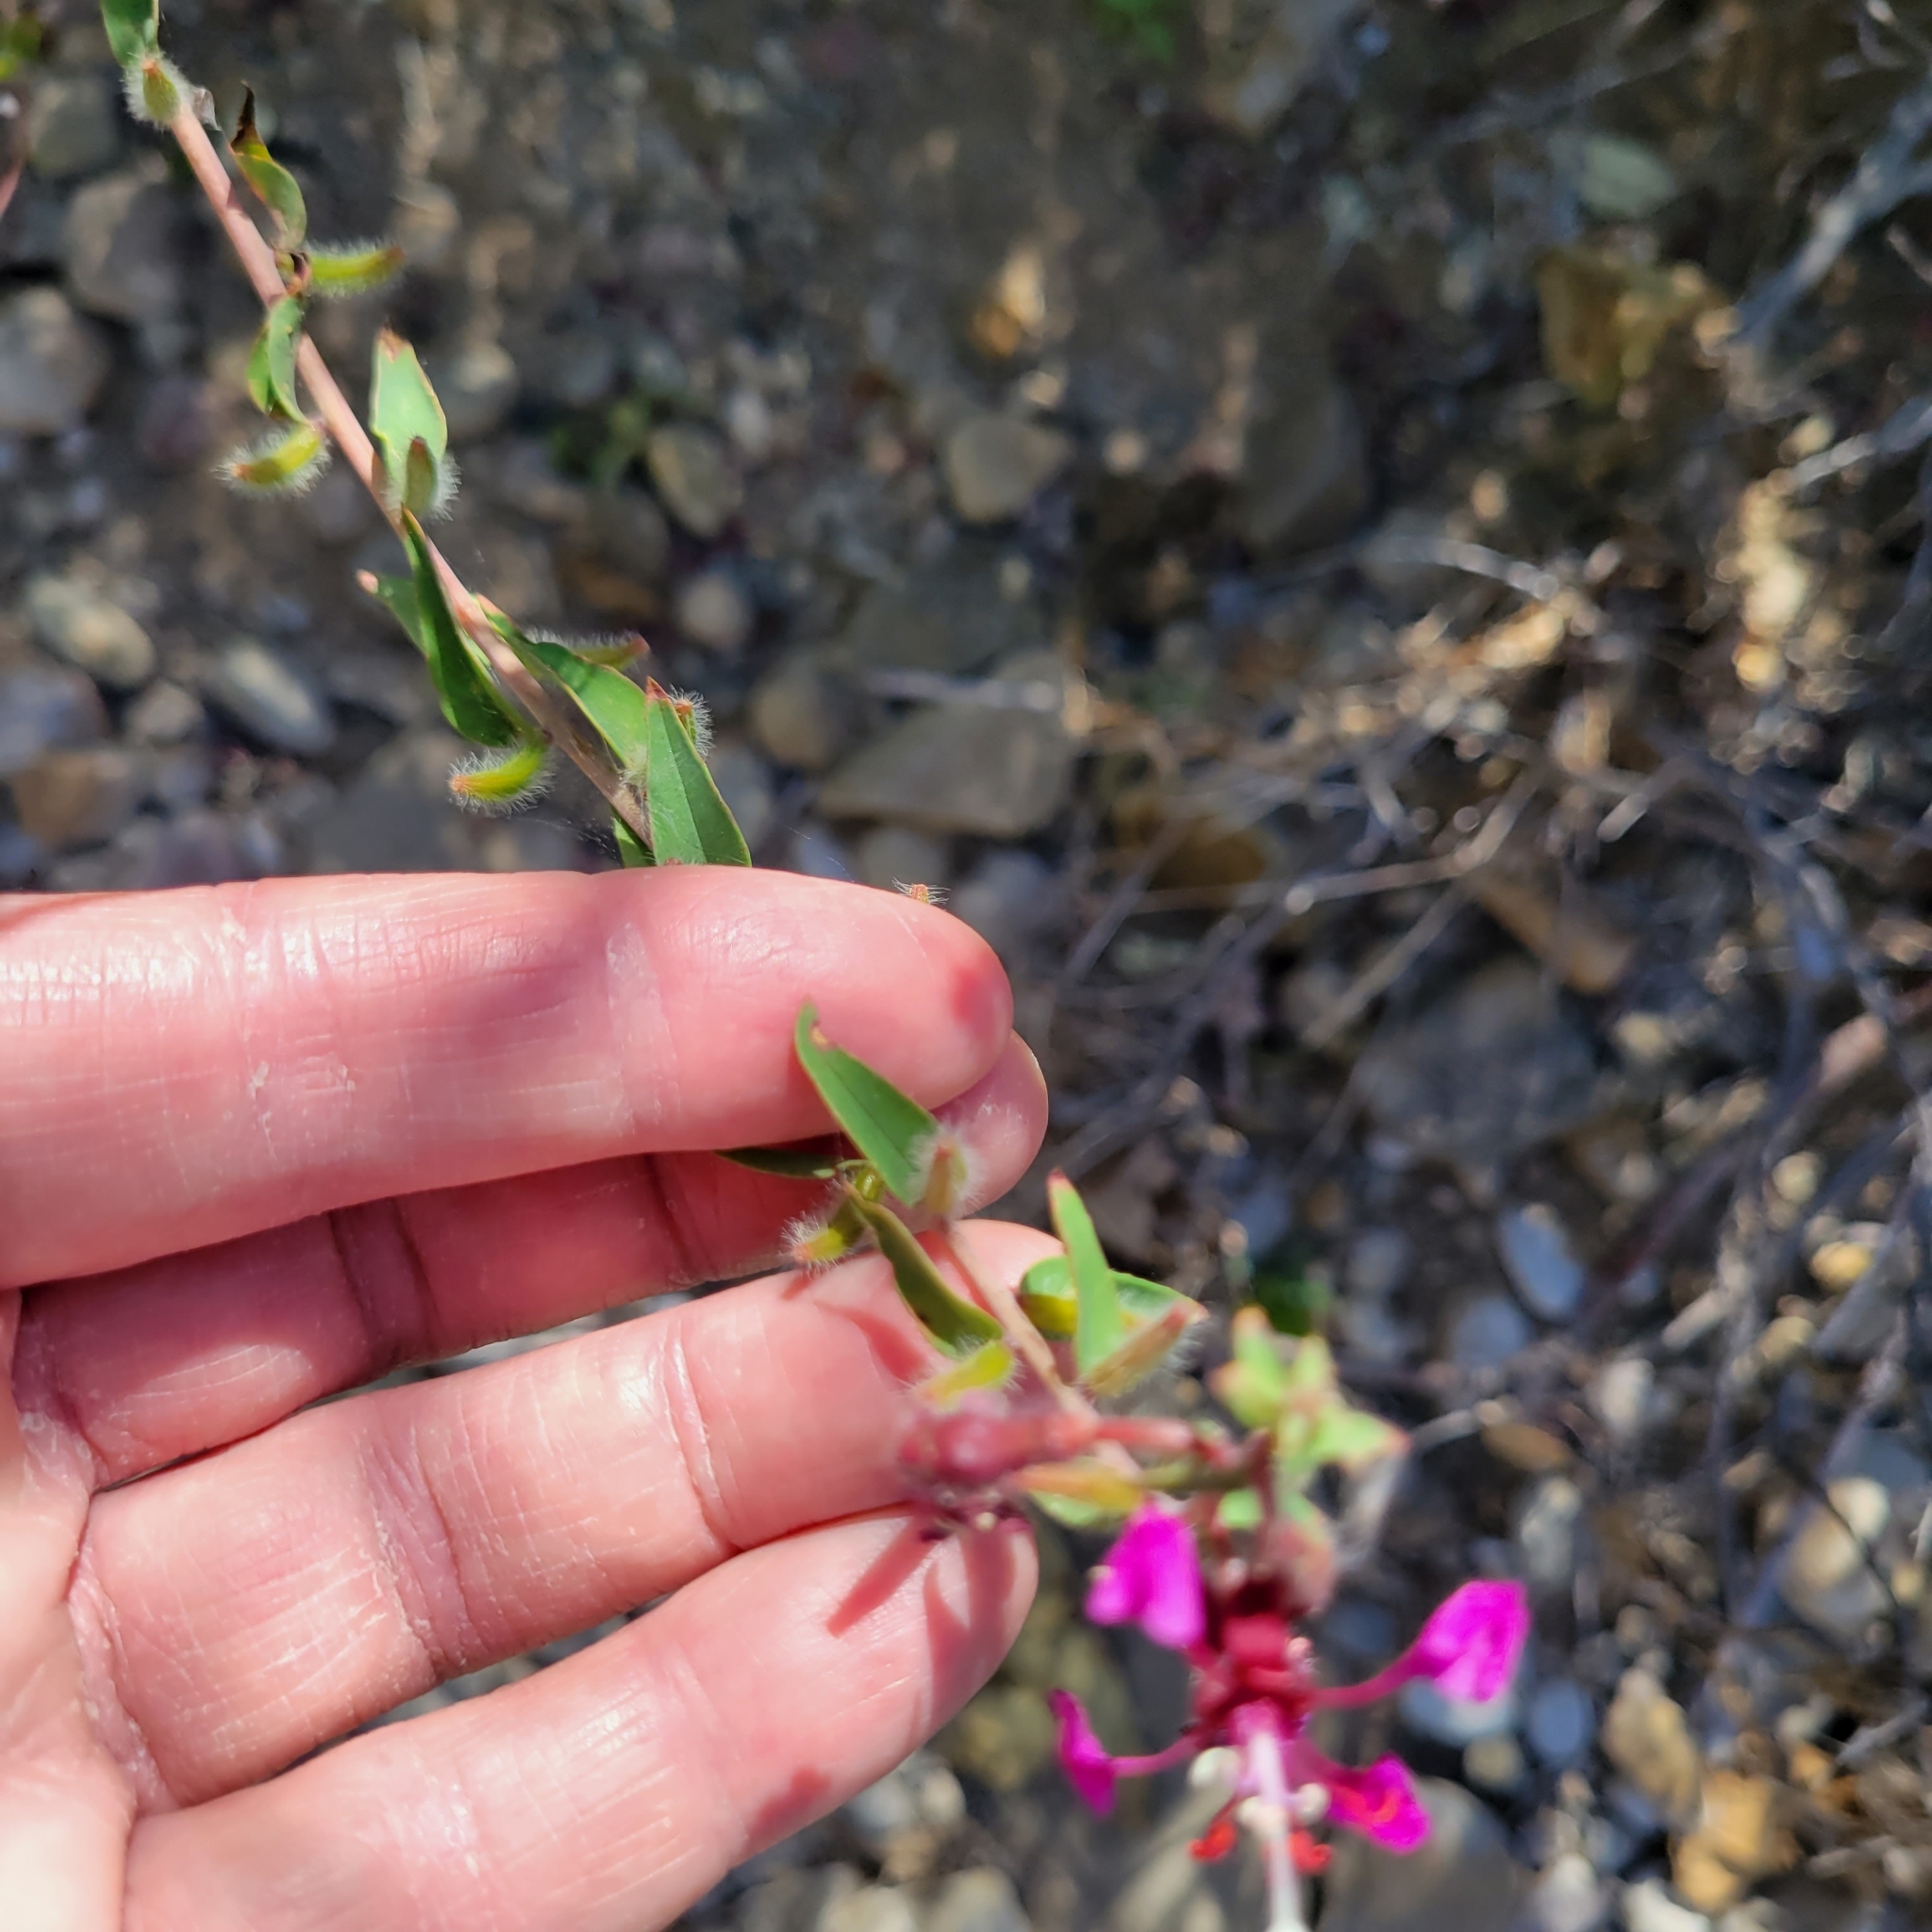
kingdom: Plantae
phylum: Tracheophyta
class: Magnoliopsida
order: Myrtales
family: Onagraceae
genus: Clarkia
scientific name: Clarkia unguiculata
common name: Clarkia
